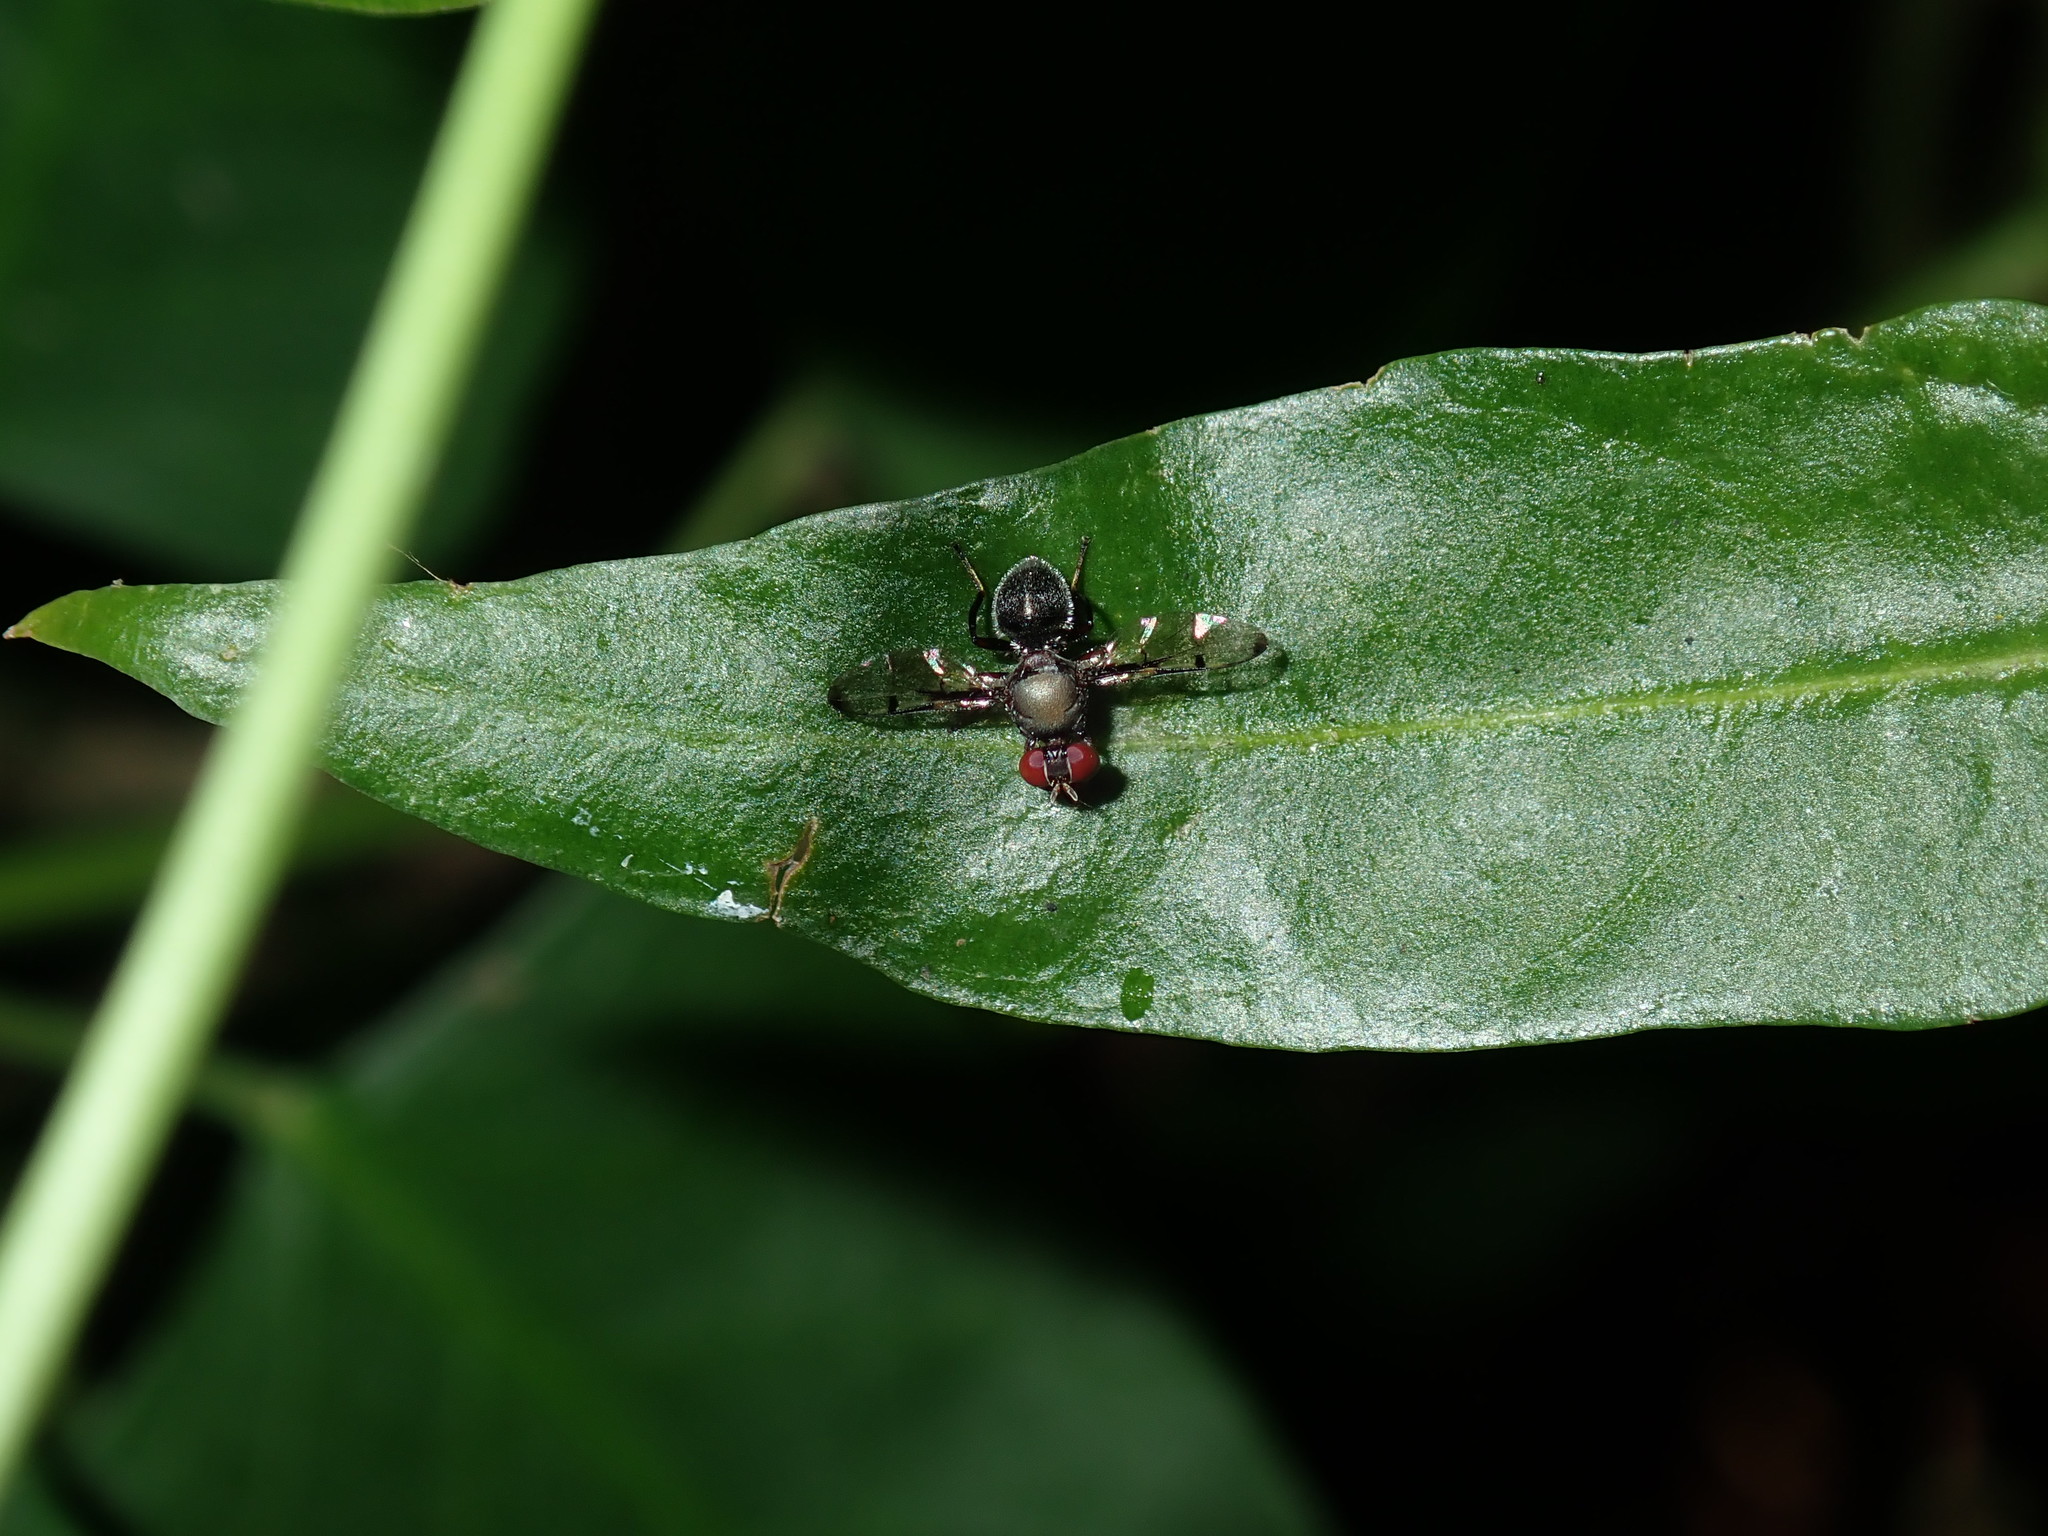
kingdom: Animalia
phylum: Arthropoda
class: Insecta
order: Diptera
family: Platystomatidae
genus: Pogonortalis
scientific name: Pogonortalis doclea
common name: Boatman fly
